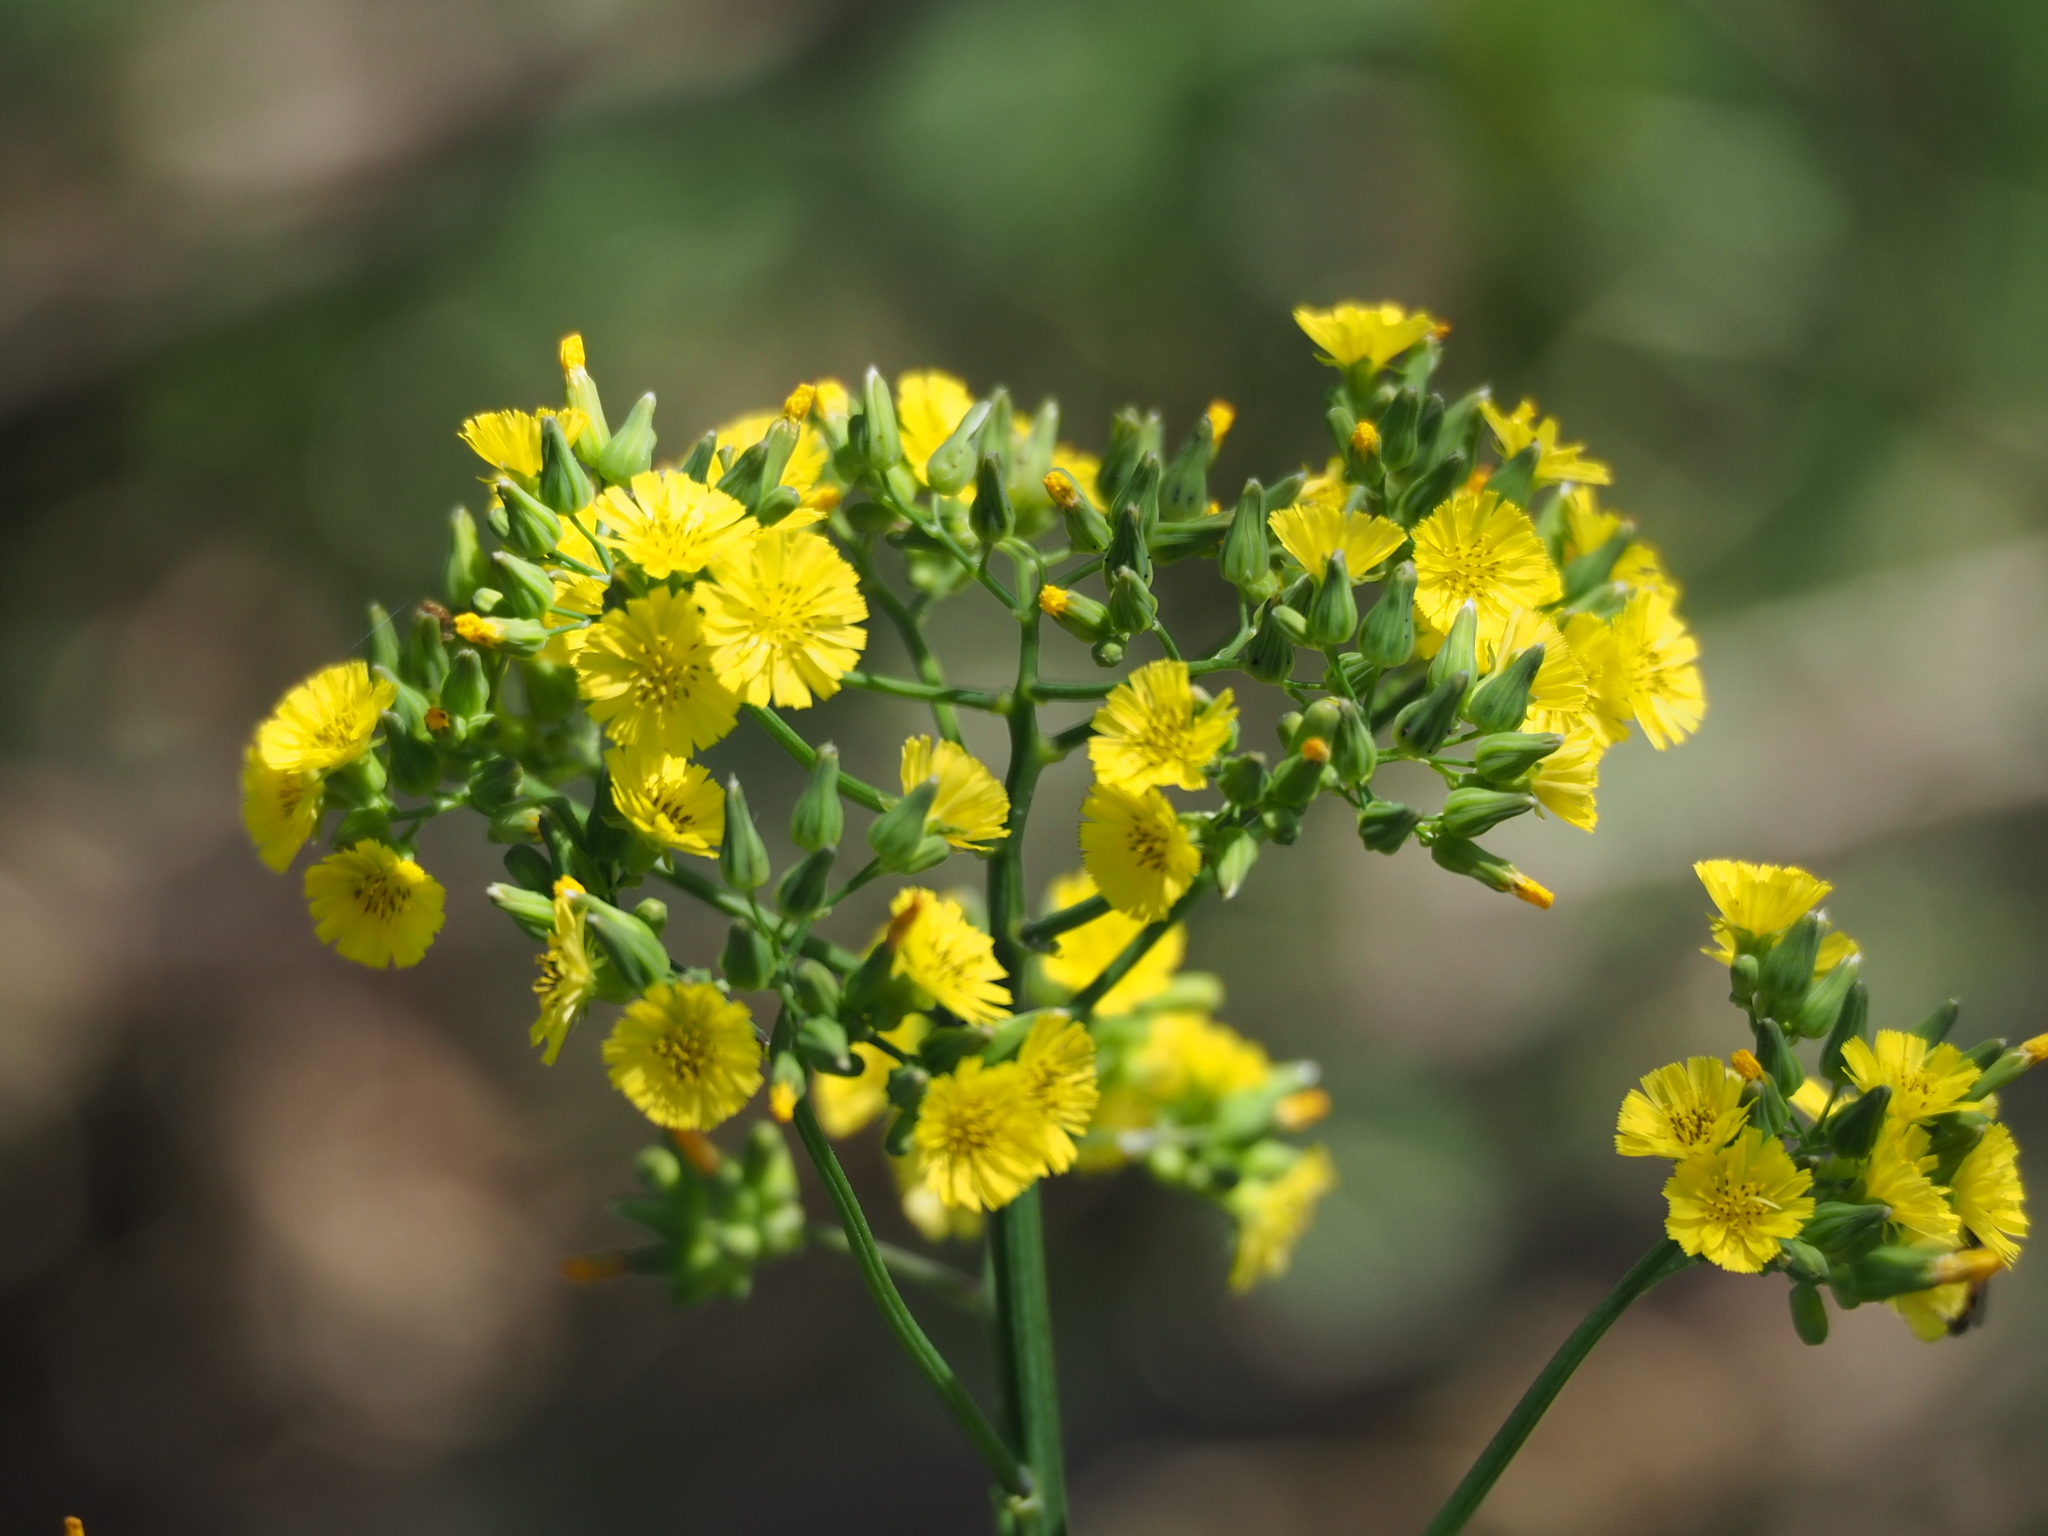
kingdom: Plantae
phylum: Tracheophyta
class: Magnoliopsida
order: Asterales
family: Asteraceae
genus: Youngia
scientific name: Youngia japonica
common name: Oriental false hawksbeard
